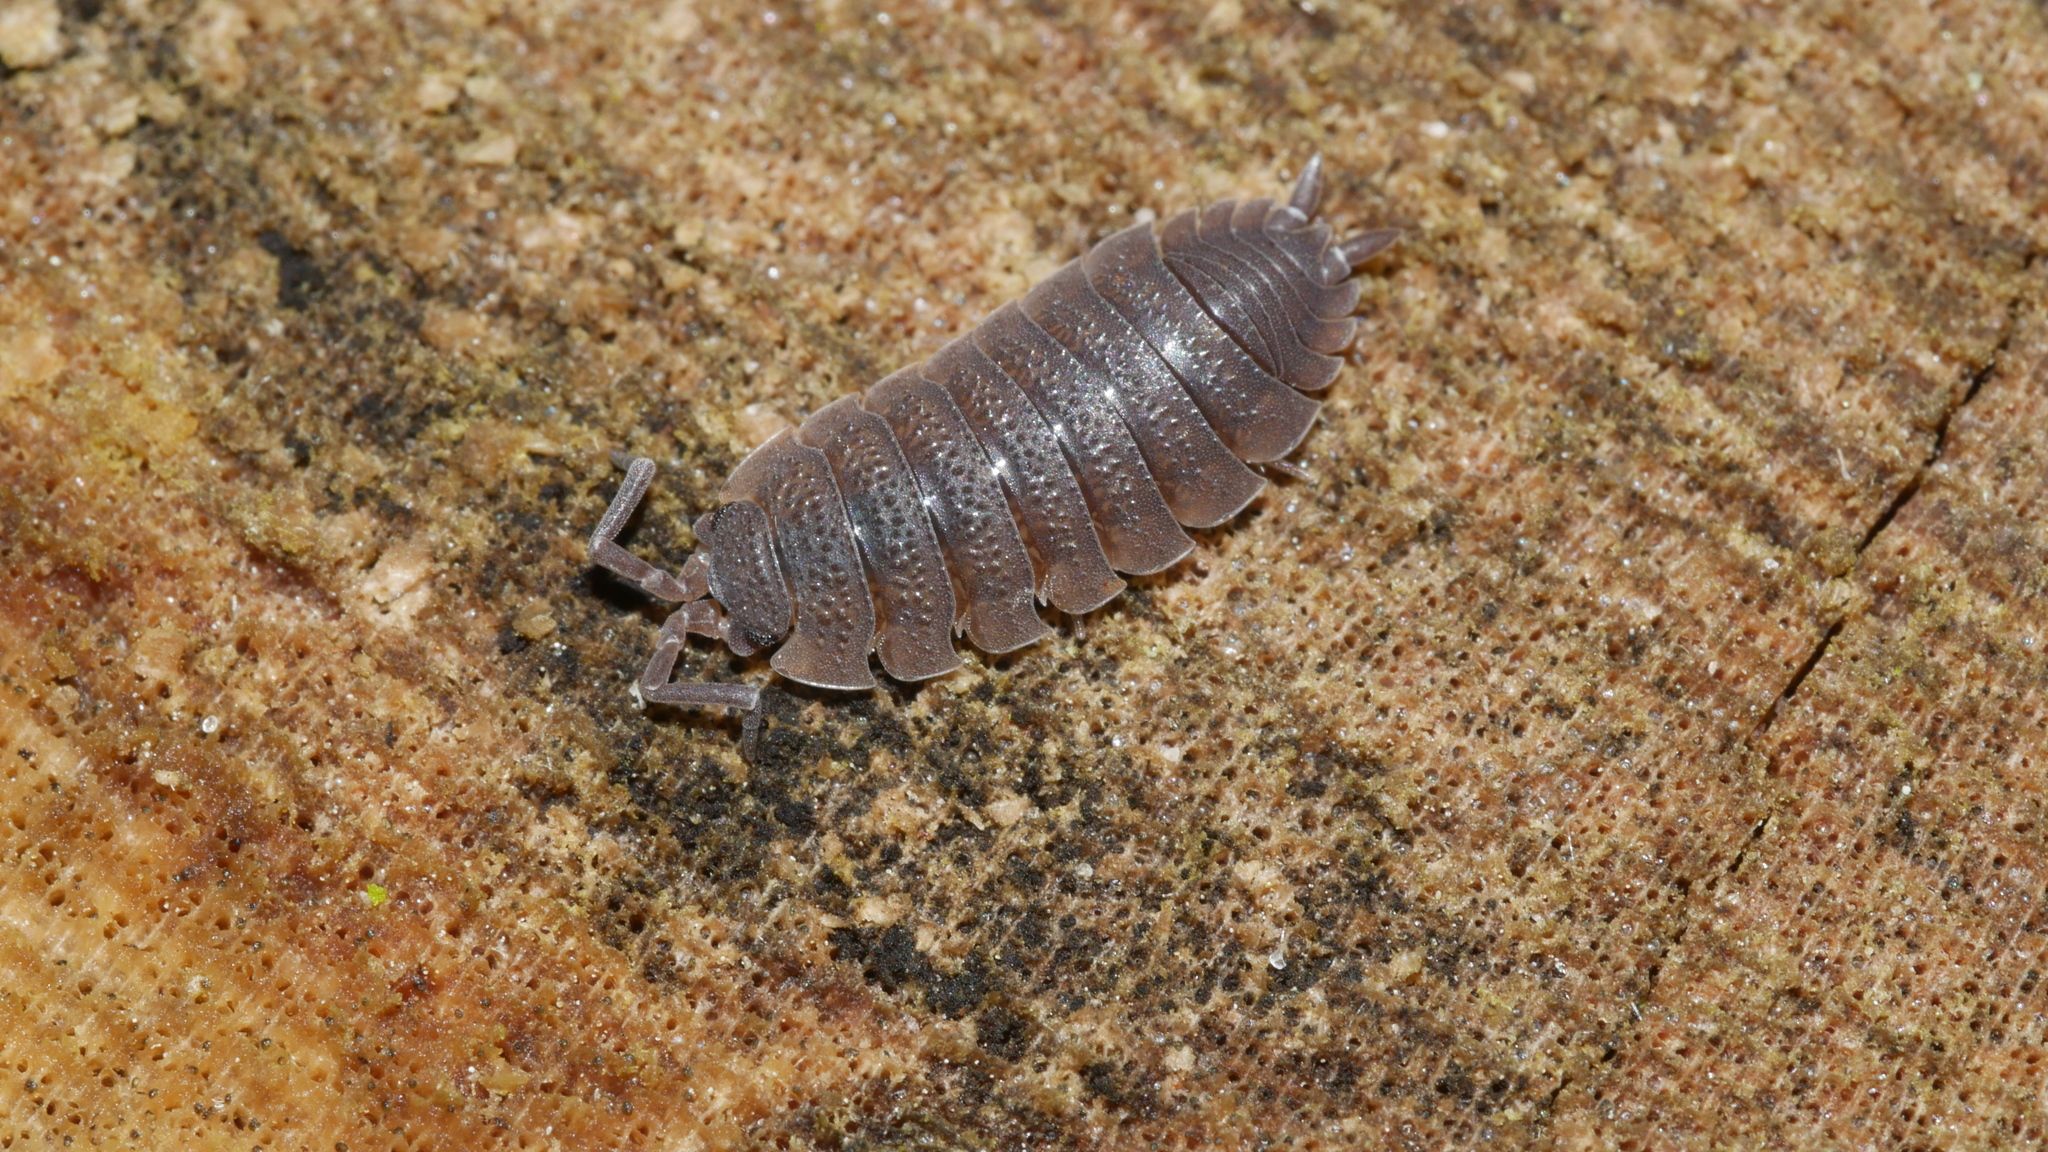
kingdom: Animalia
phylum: Arthropoda
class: Malacostraca
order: Isopoda
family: Porcellionidae
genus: Porcellio
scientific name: Porcellio scaber
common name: Common rough woodlouse
